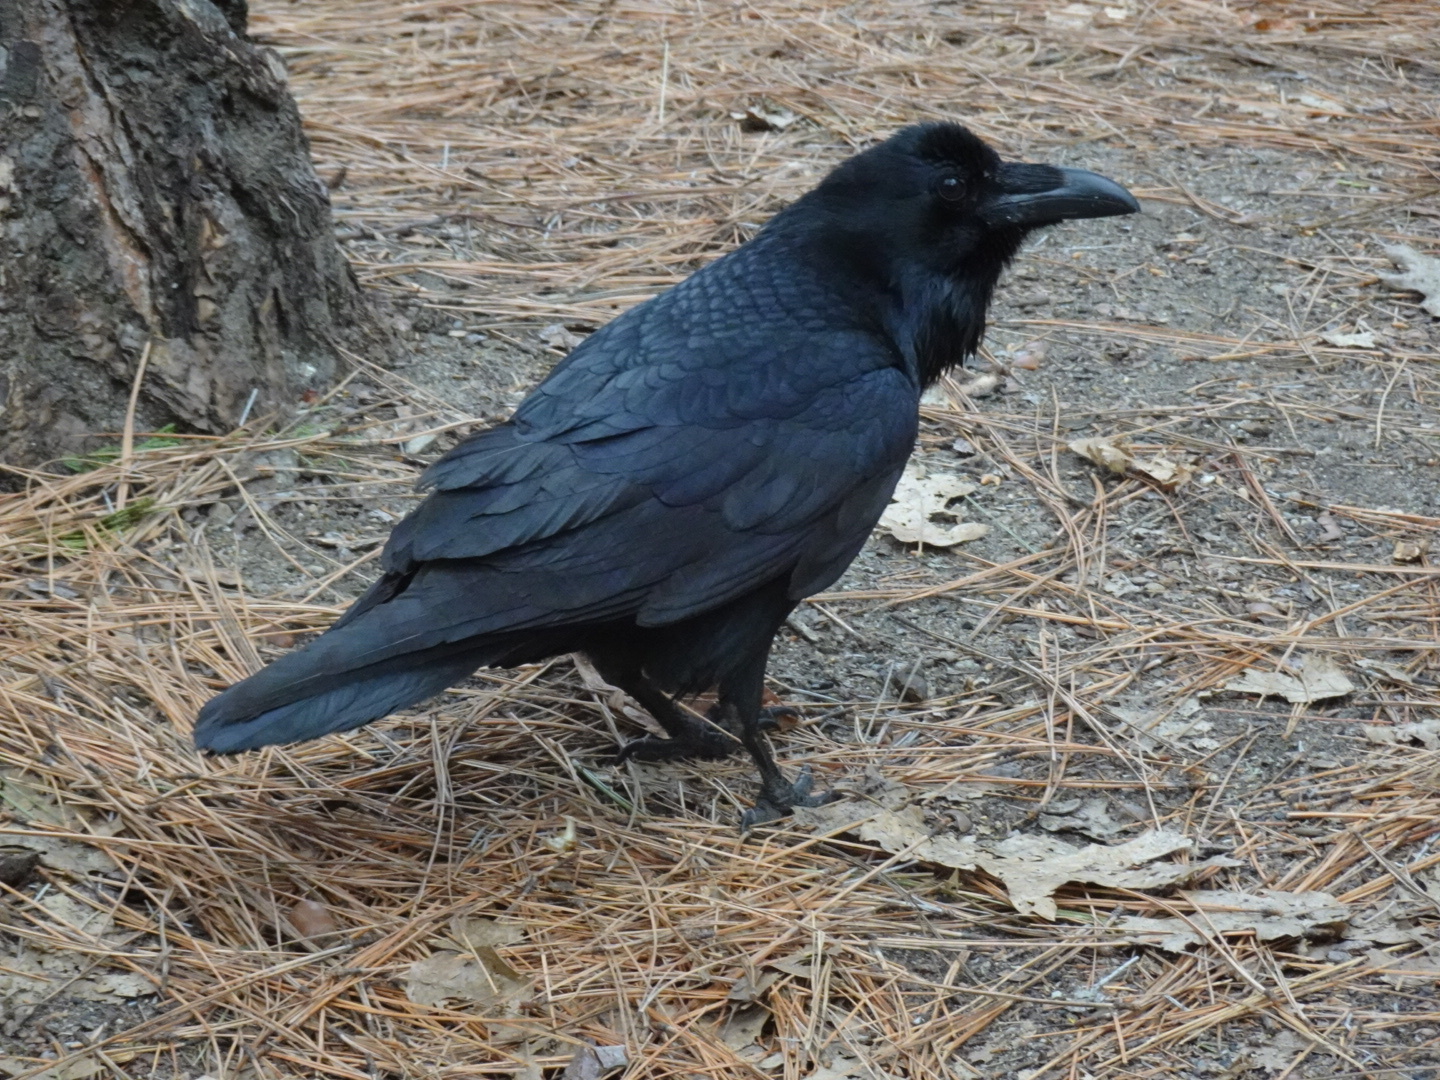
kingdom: Animalia
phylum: Chordata
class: Aves
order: Passeriformes
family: Corvidae
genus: Corvus
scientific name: Corvus corax
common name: Common raven
